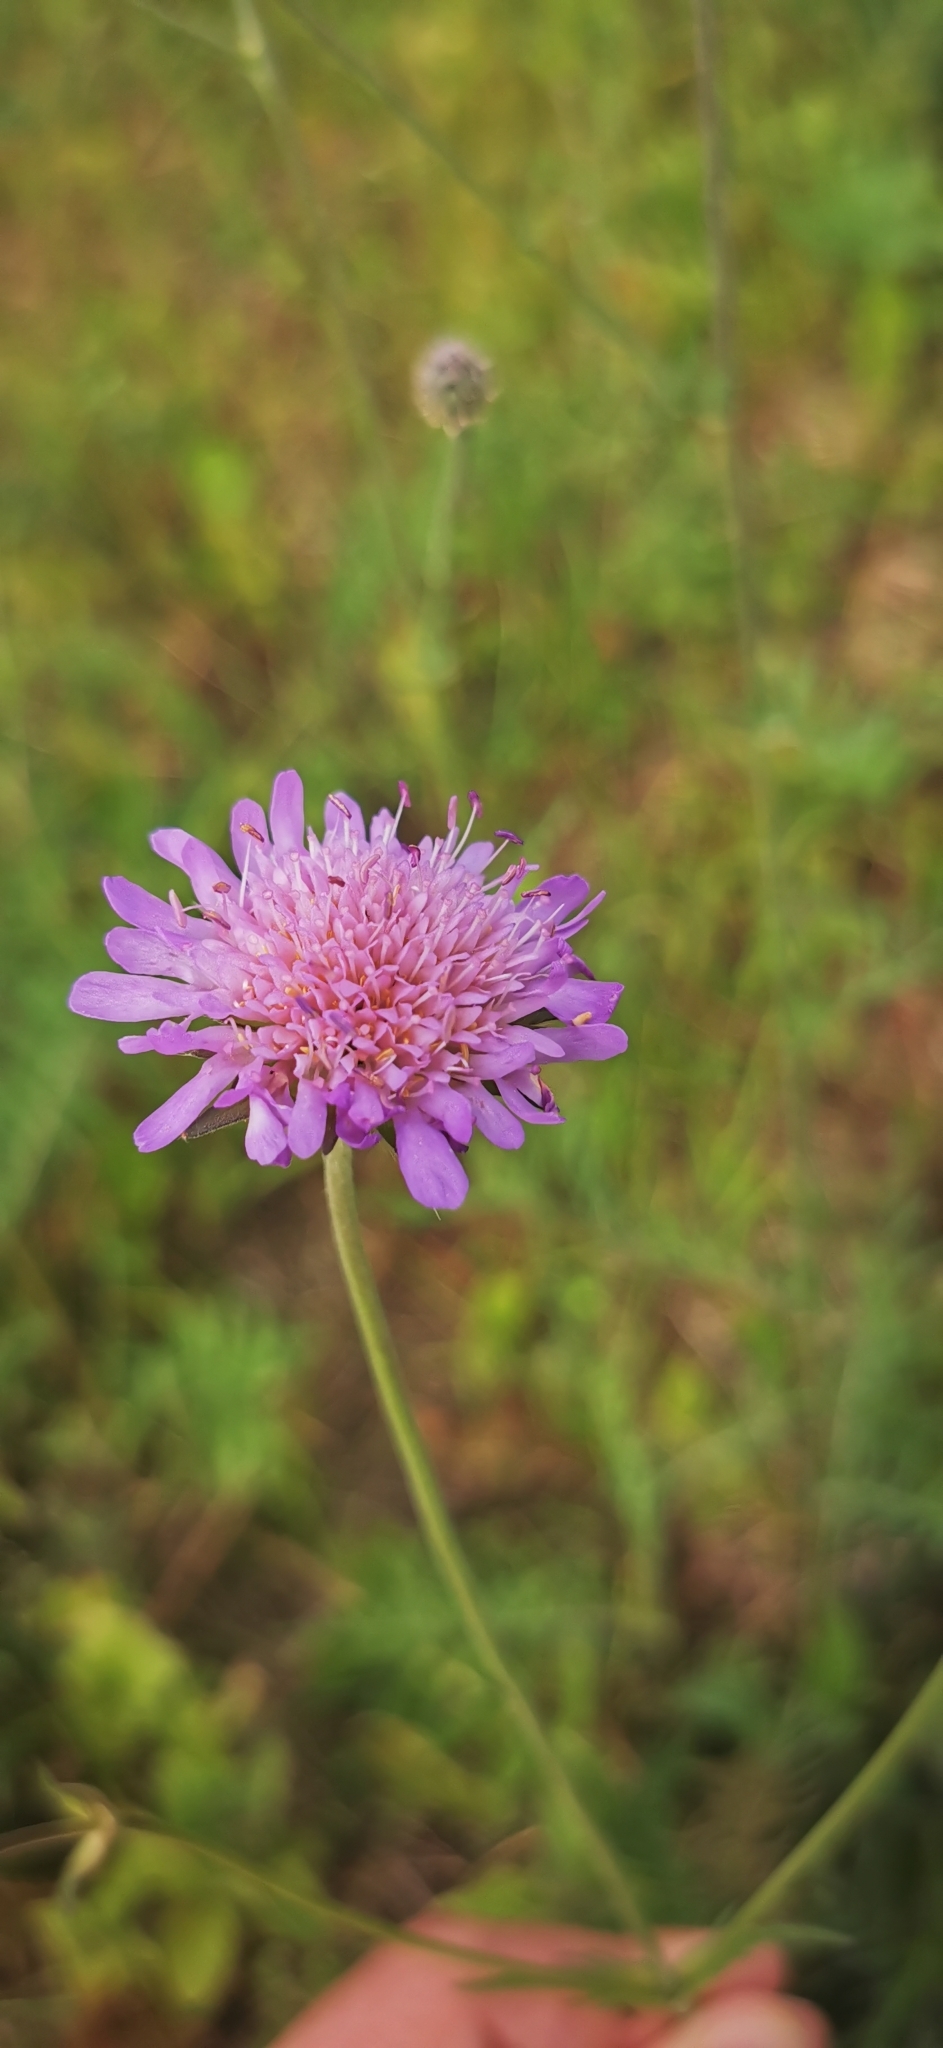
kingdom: Plantae
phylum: Tracheophyta
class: Magnoliopsida
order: Dipsacales
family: Caprifoliaceae
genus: Knautia
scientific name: Knautia arvensis
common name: Field scabiosa
